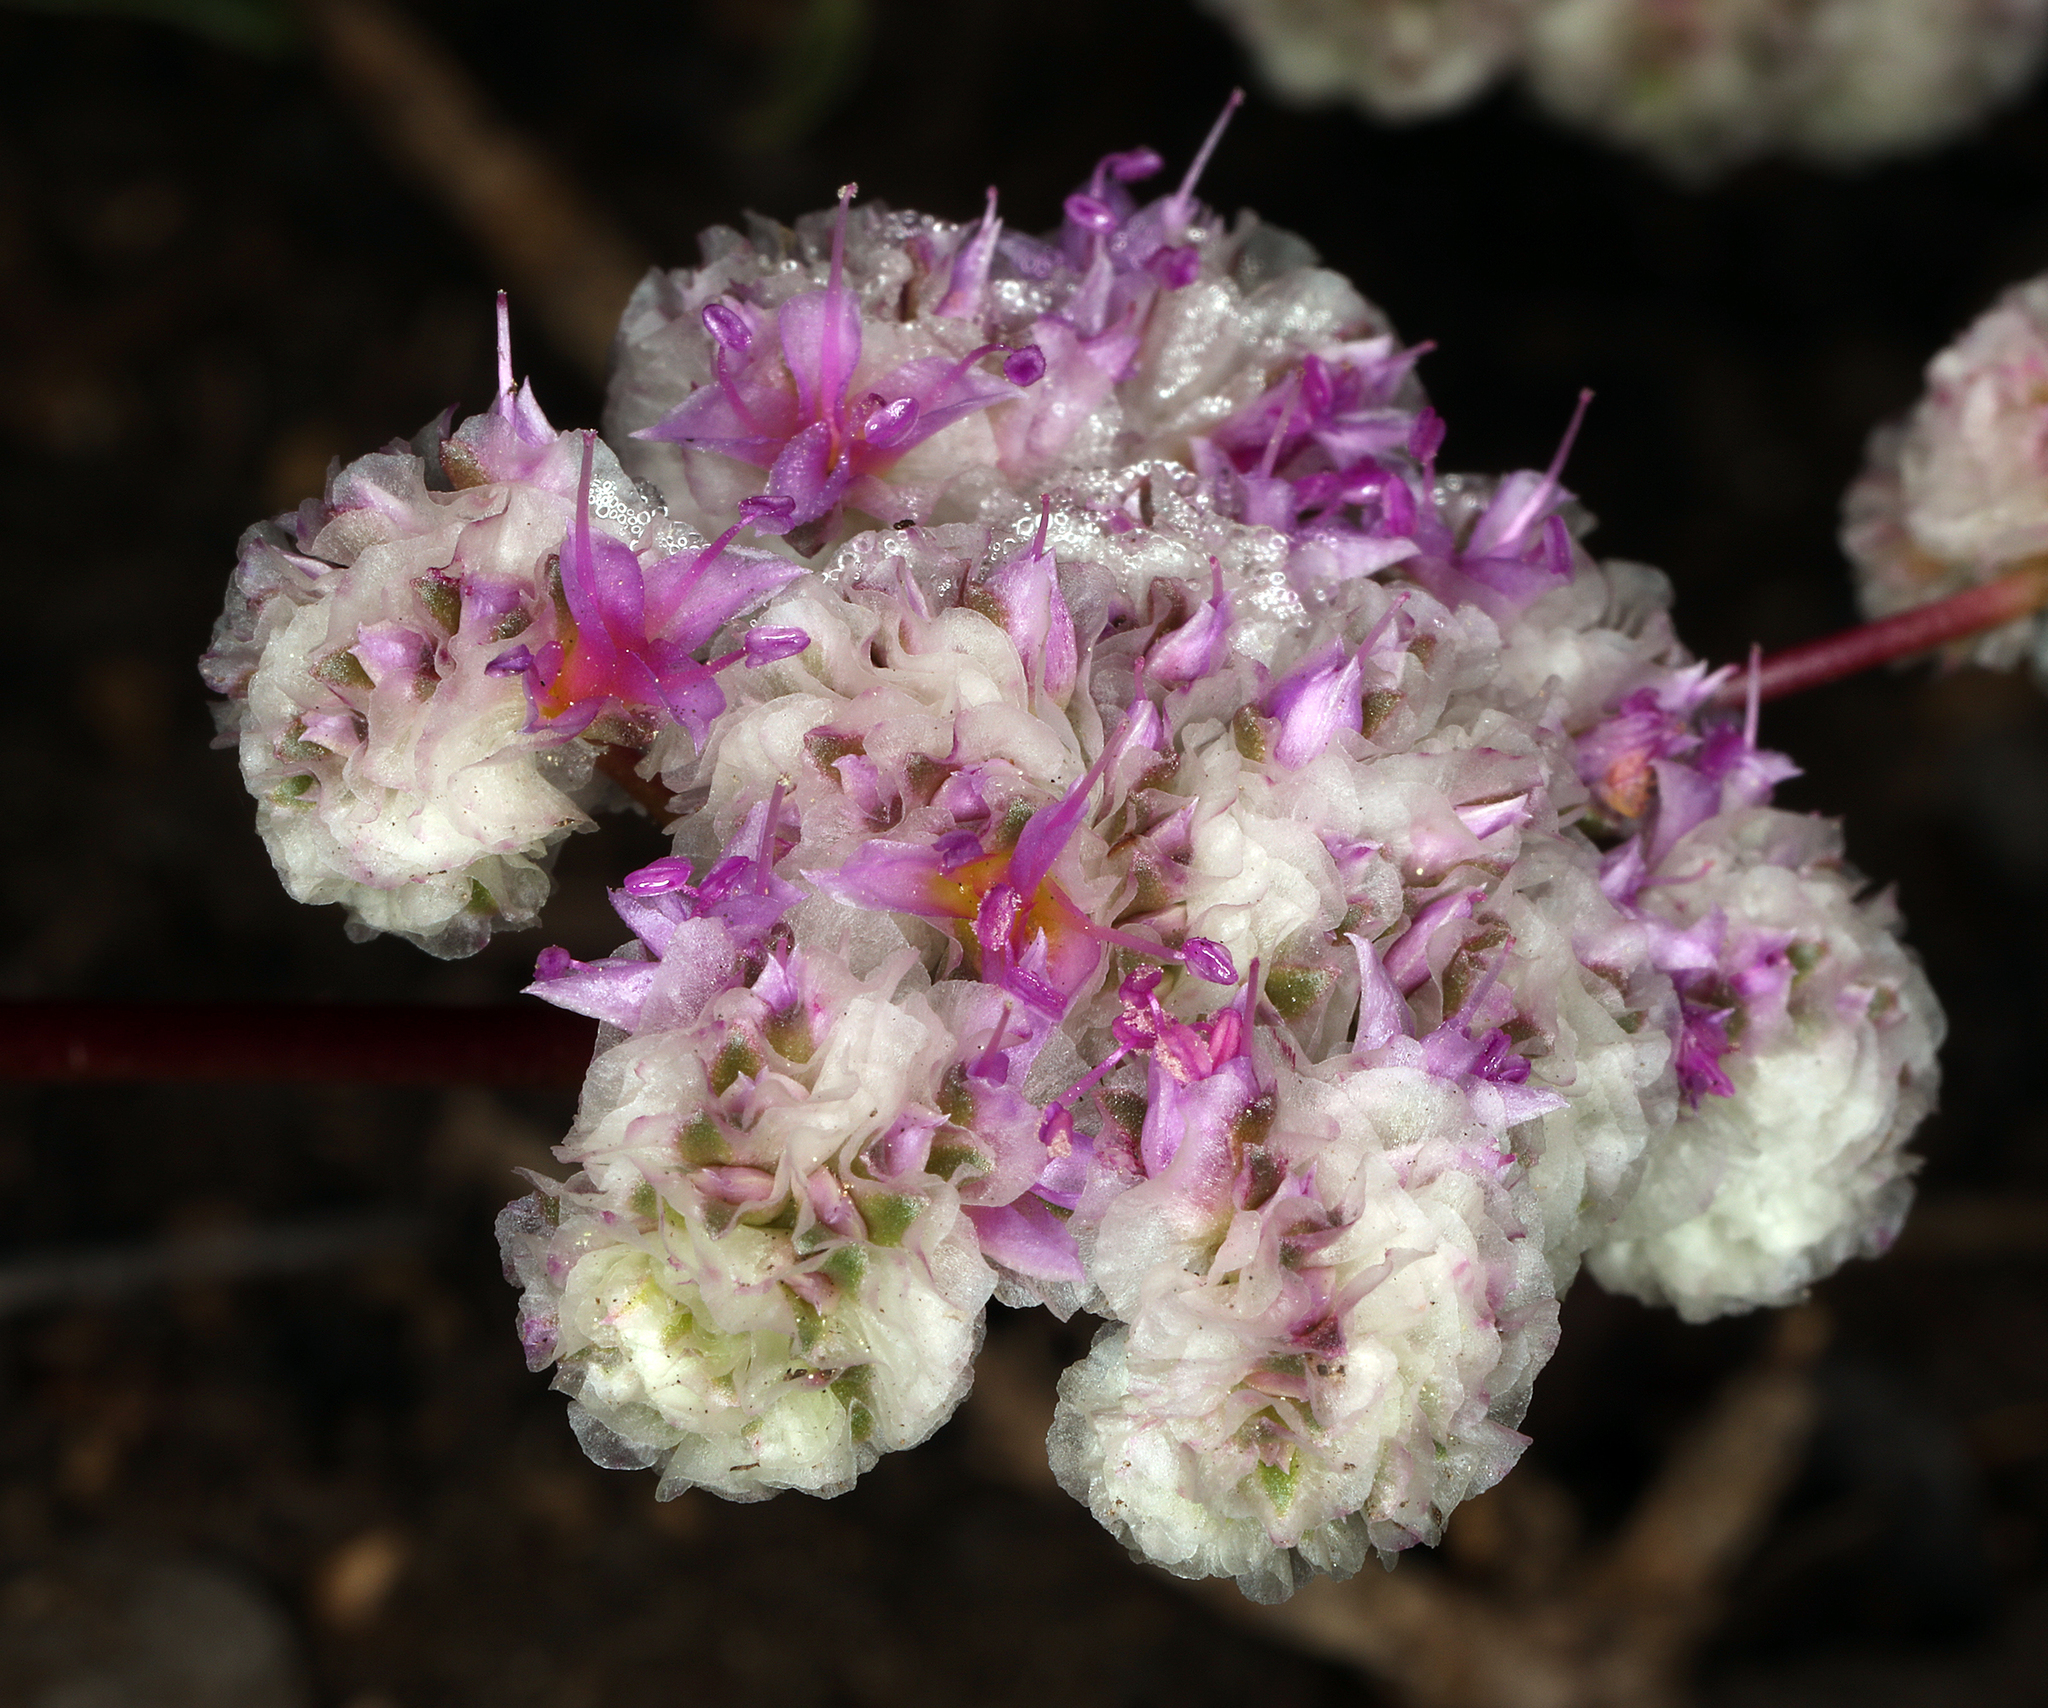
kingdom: Plantae
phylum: Tracheophyta
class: Magnoliopsida
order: Caryophyllales
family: Montiaceae
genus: Calyptridium
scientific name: Calyptridium monospermum
